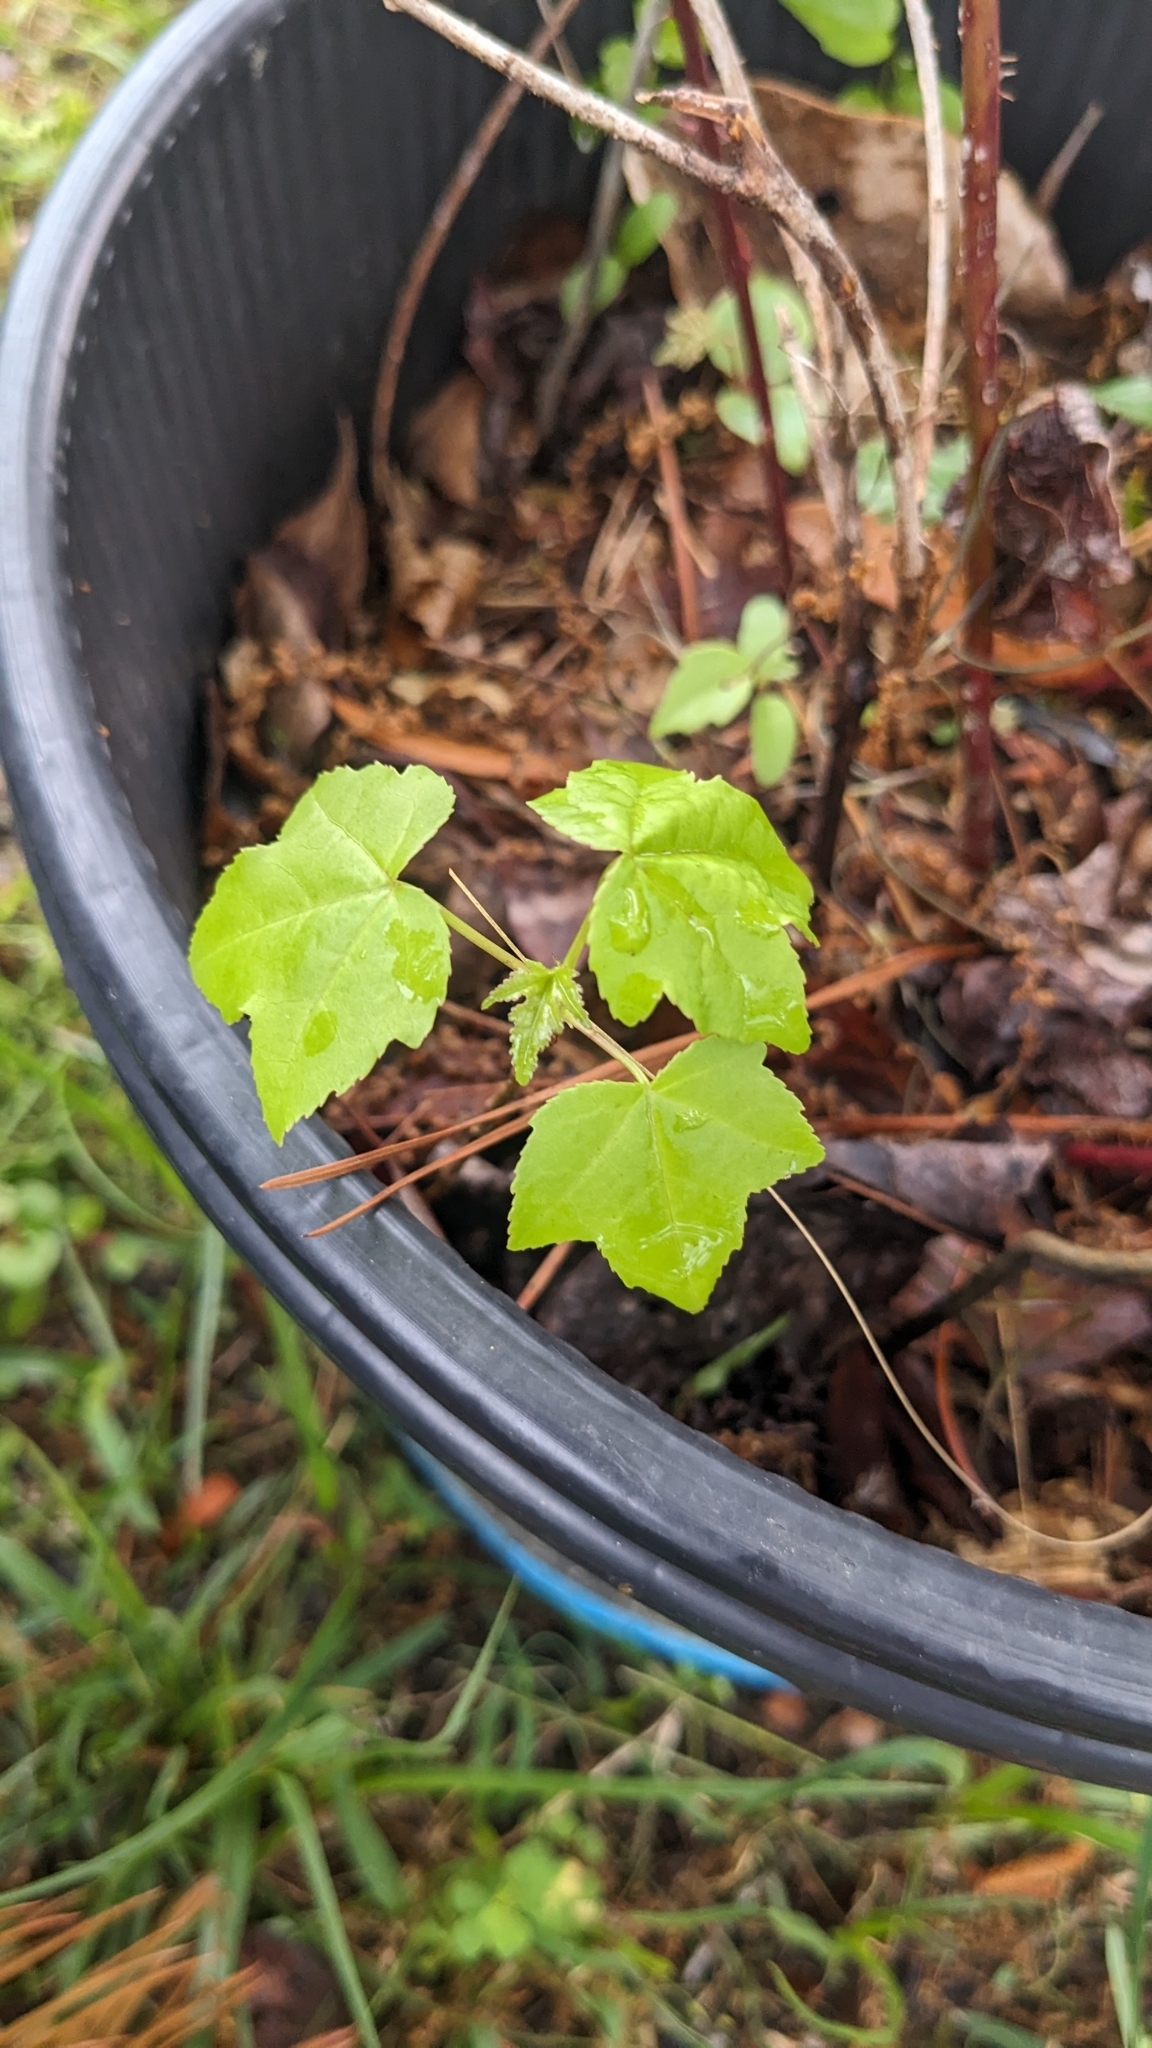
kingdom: Plantae
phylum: Tracheophyta
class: Magnoliopsida
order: Saxifragales
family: Altingiaceae
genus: Liquidambar
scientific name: Liquidambar styraciflua
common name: Sweet gum
